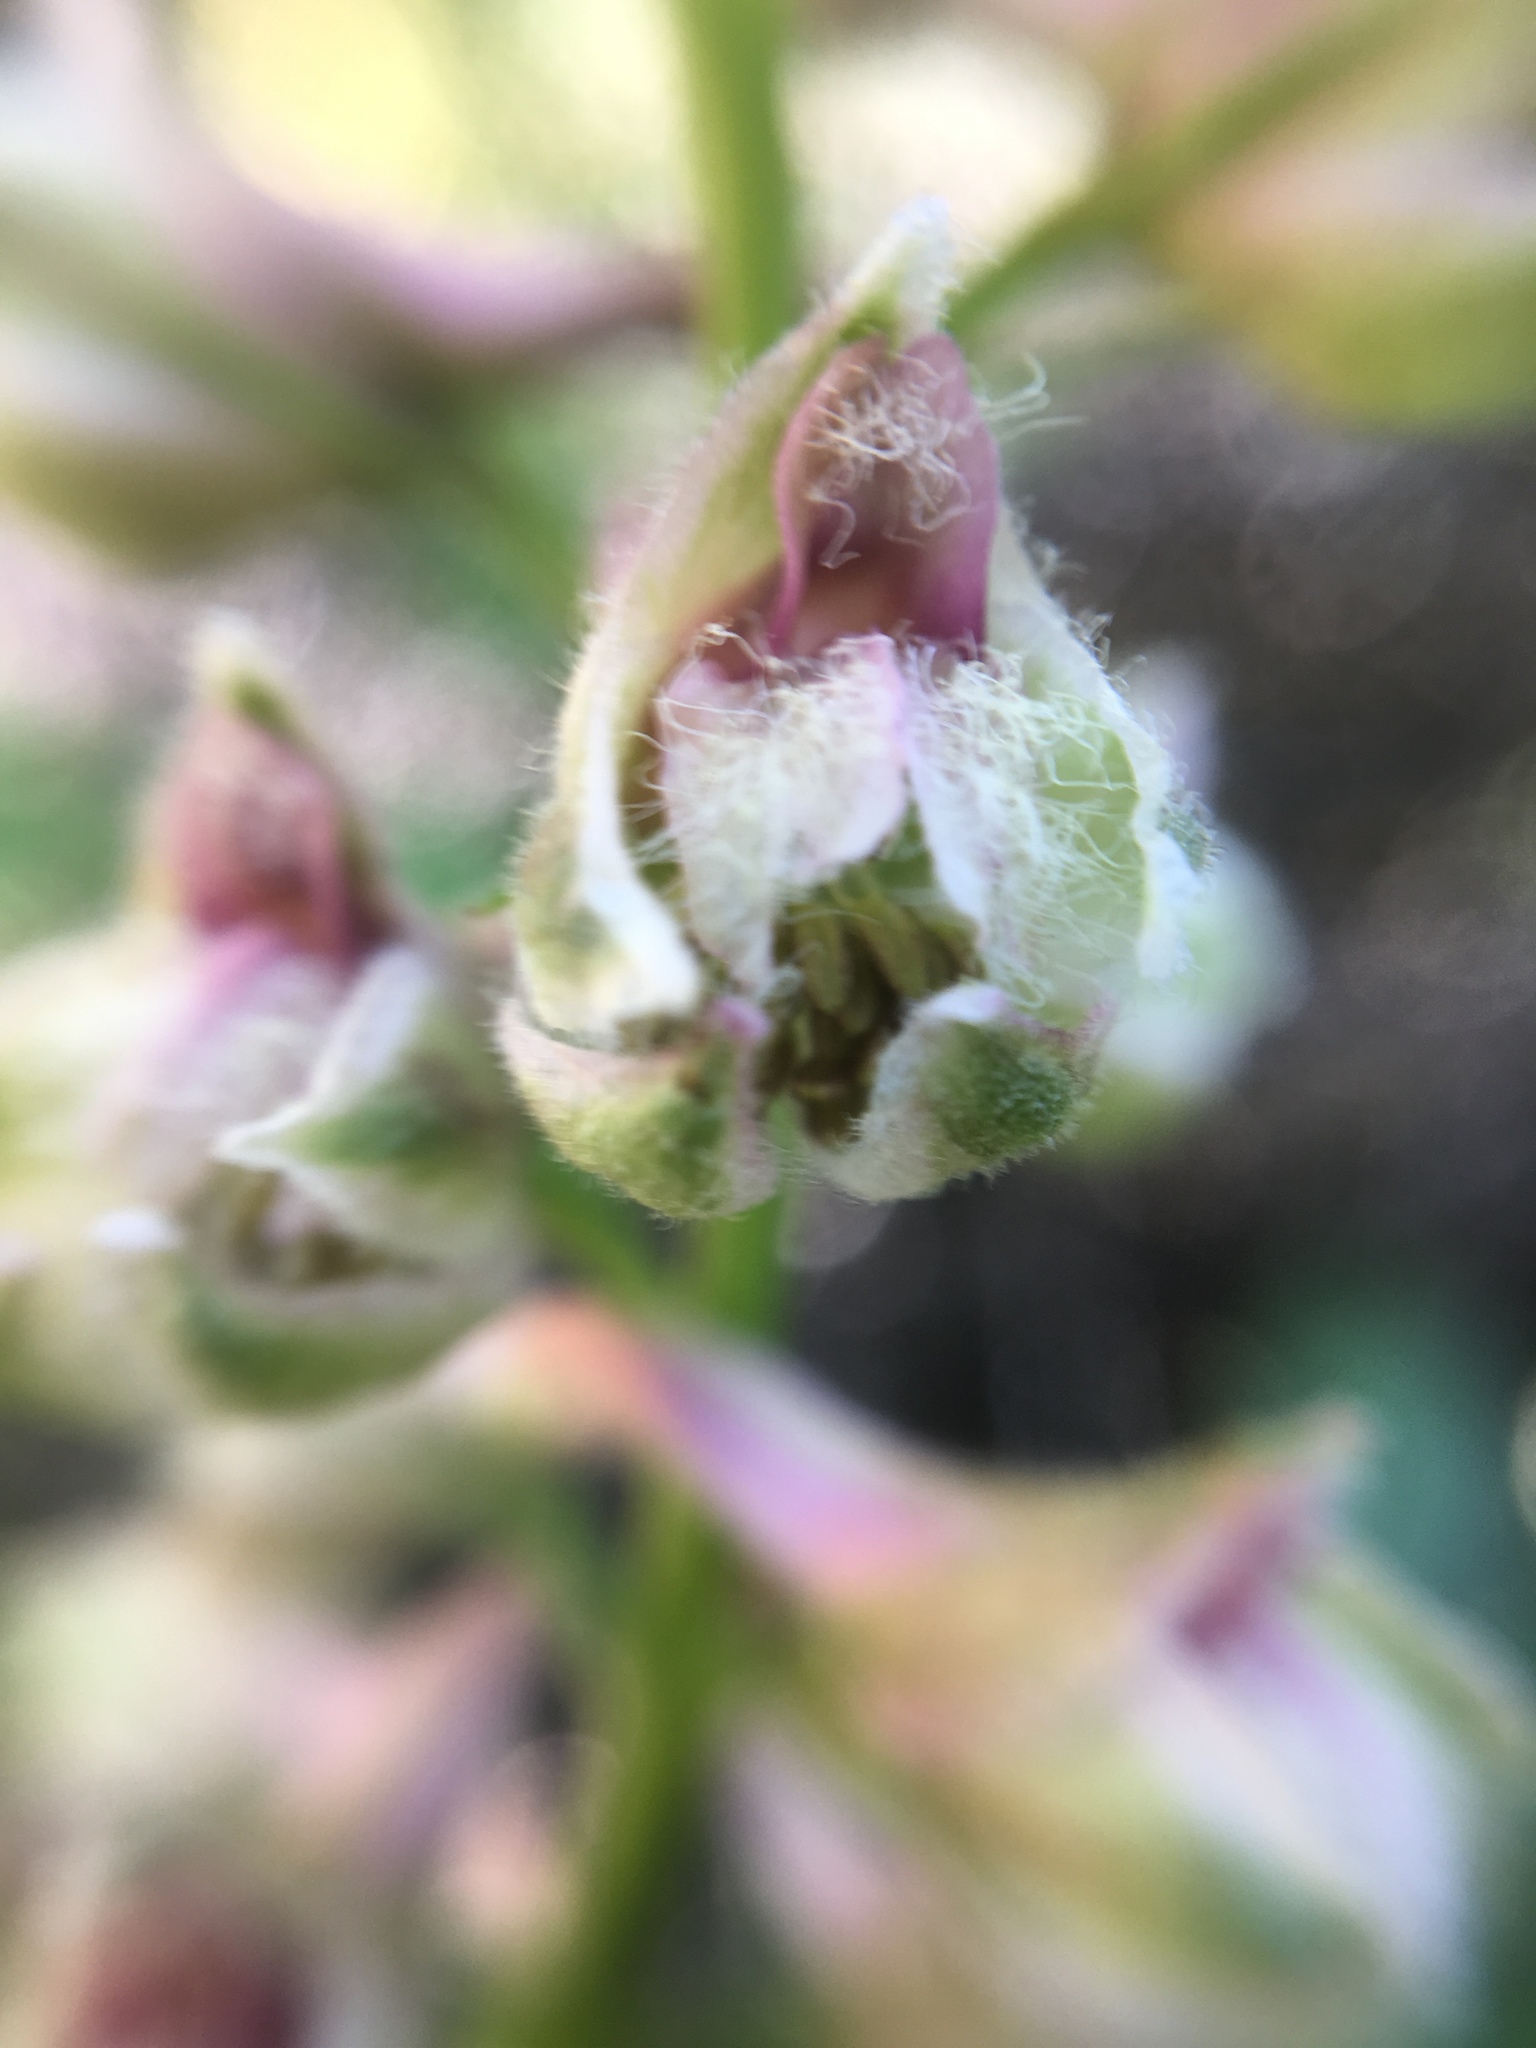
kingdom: Plantae
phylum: Tracheophyta
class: Magnoliopsida
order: Ranunculales
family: Ranunculaceae
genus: Delphinium
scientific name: Delphinium californicum
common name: California larkspur
